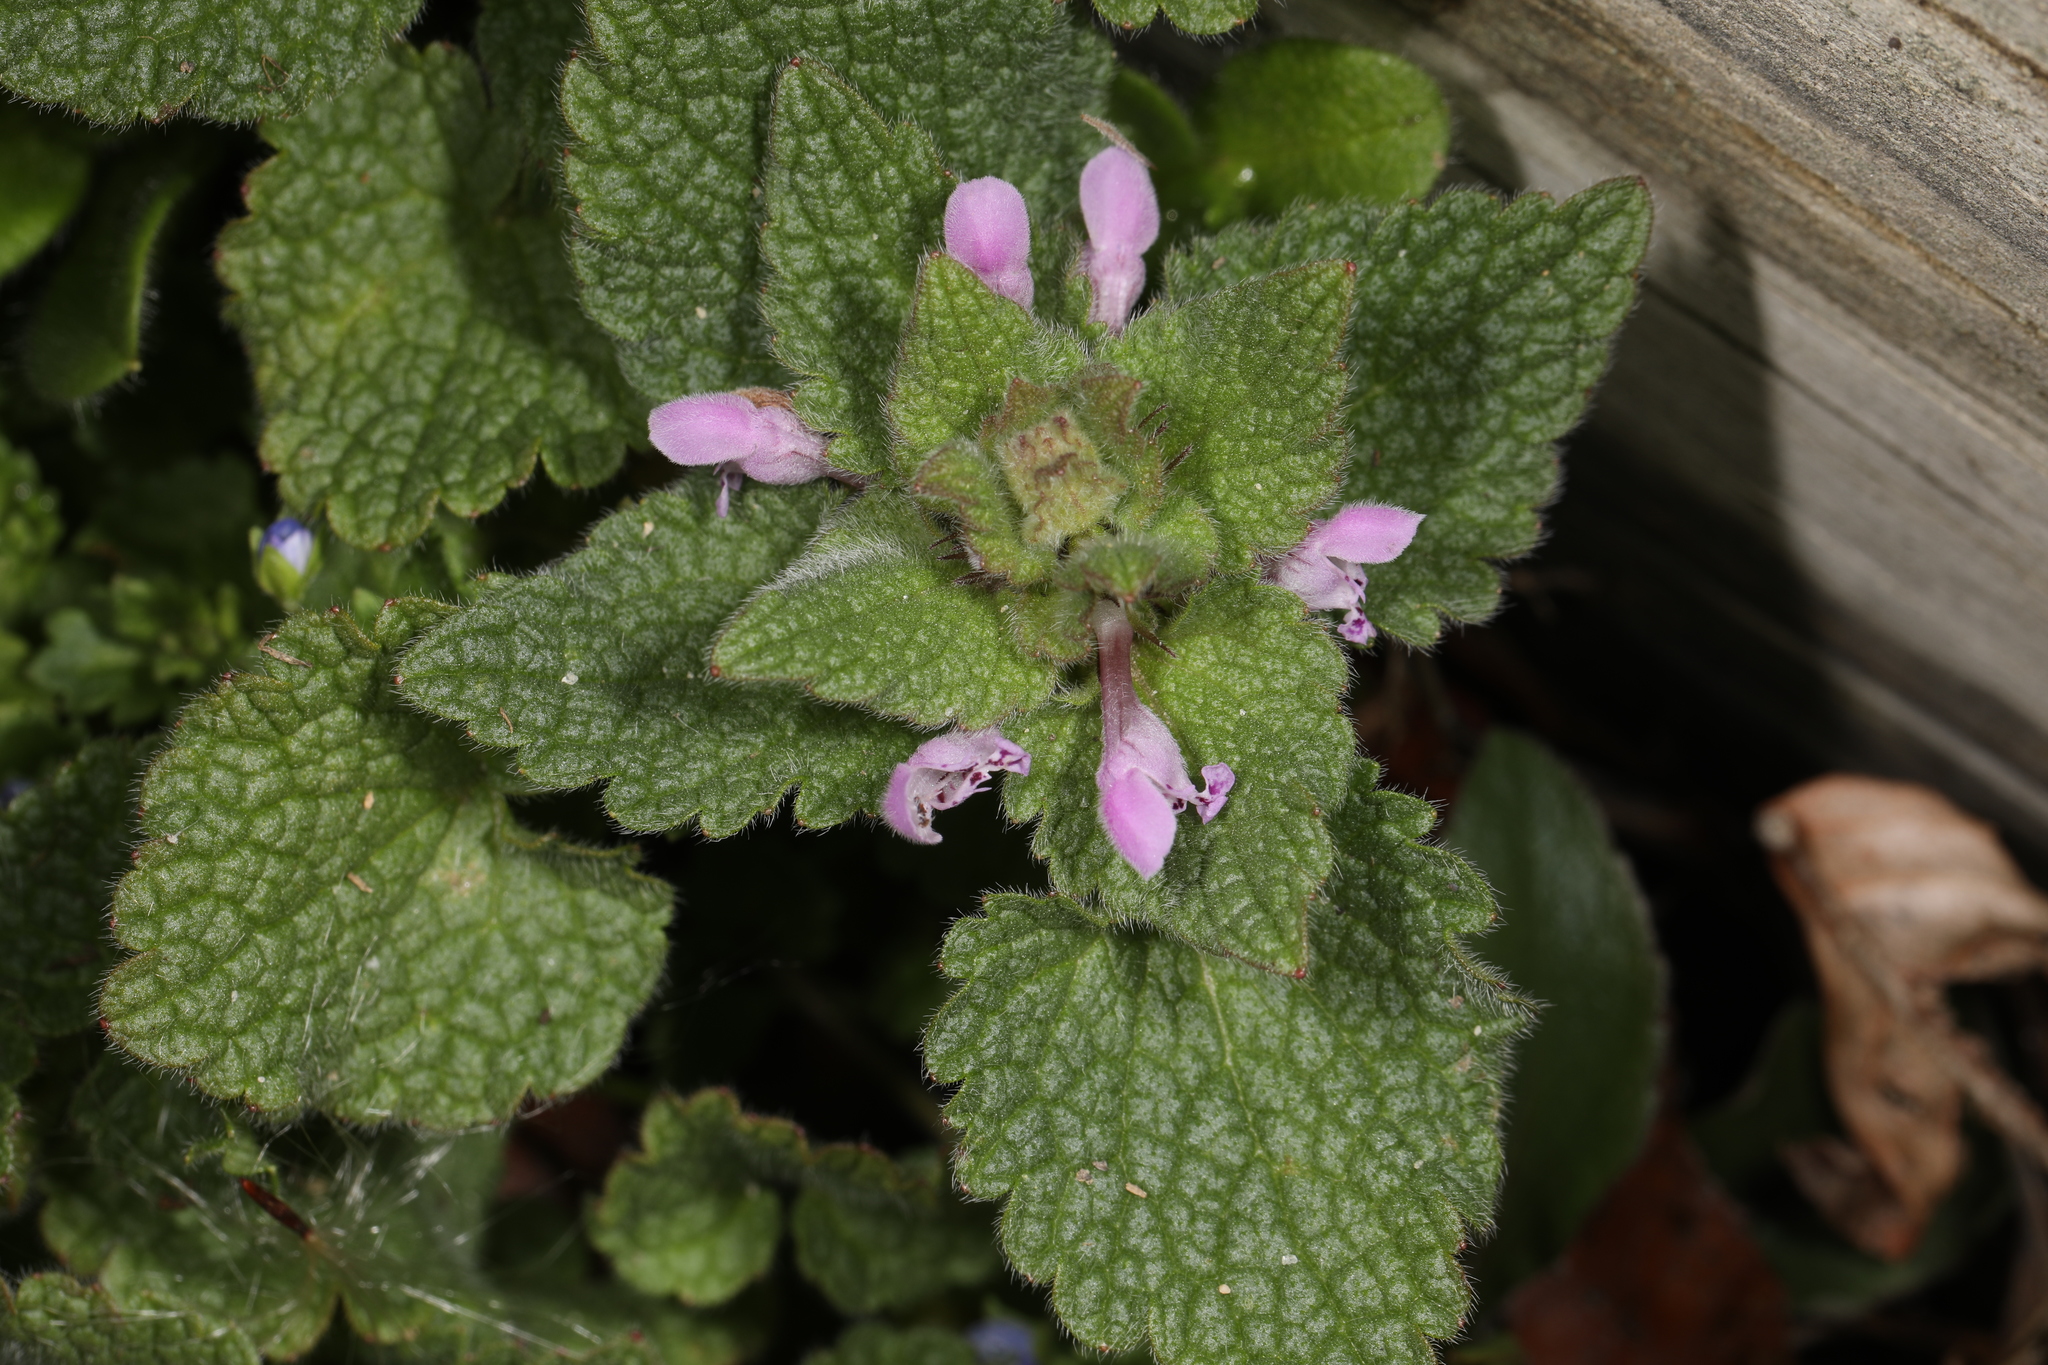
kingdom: Plantae
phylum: Tracheophyta
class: Magnoliopsida
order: Lamiales
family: Lamiaceae
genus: Lamium
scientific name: Lamium purpureum
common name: Red dead-nettle
